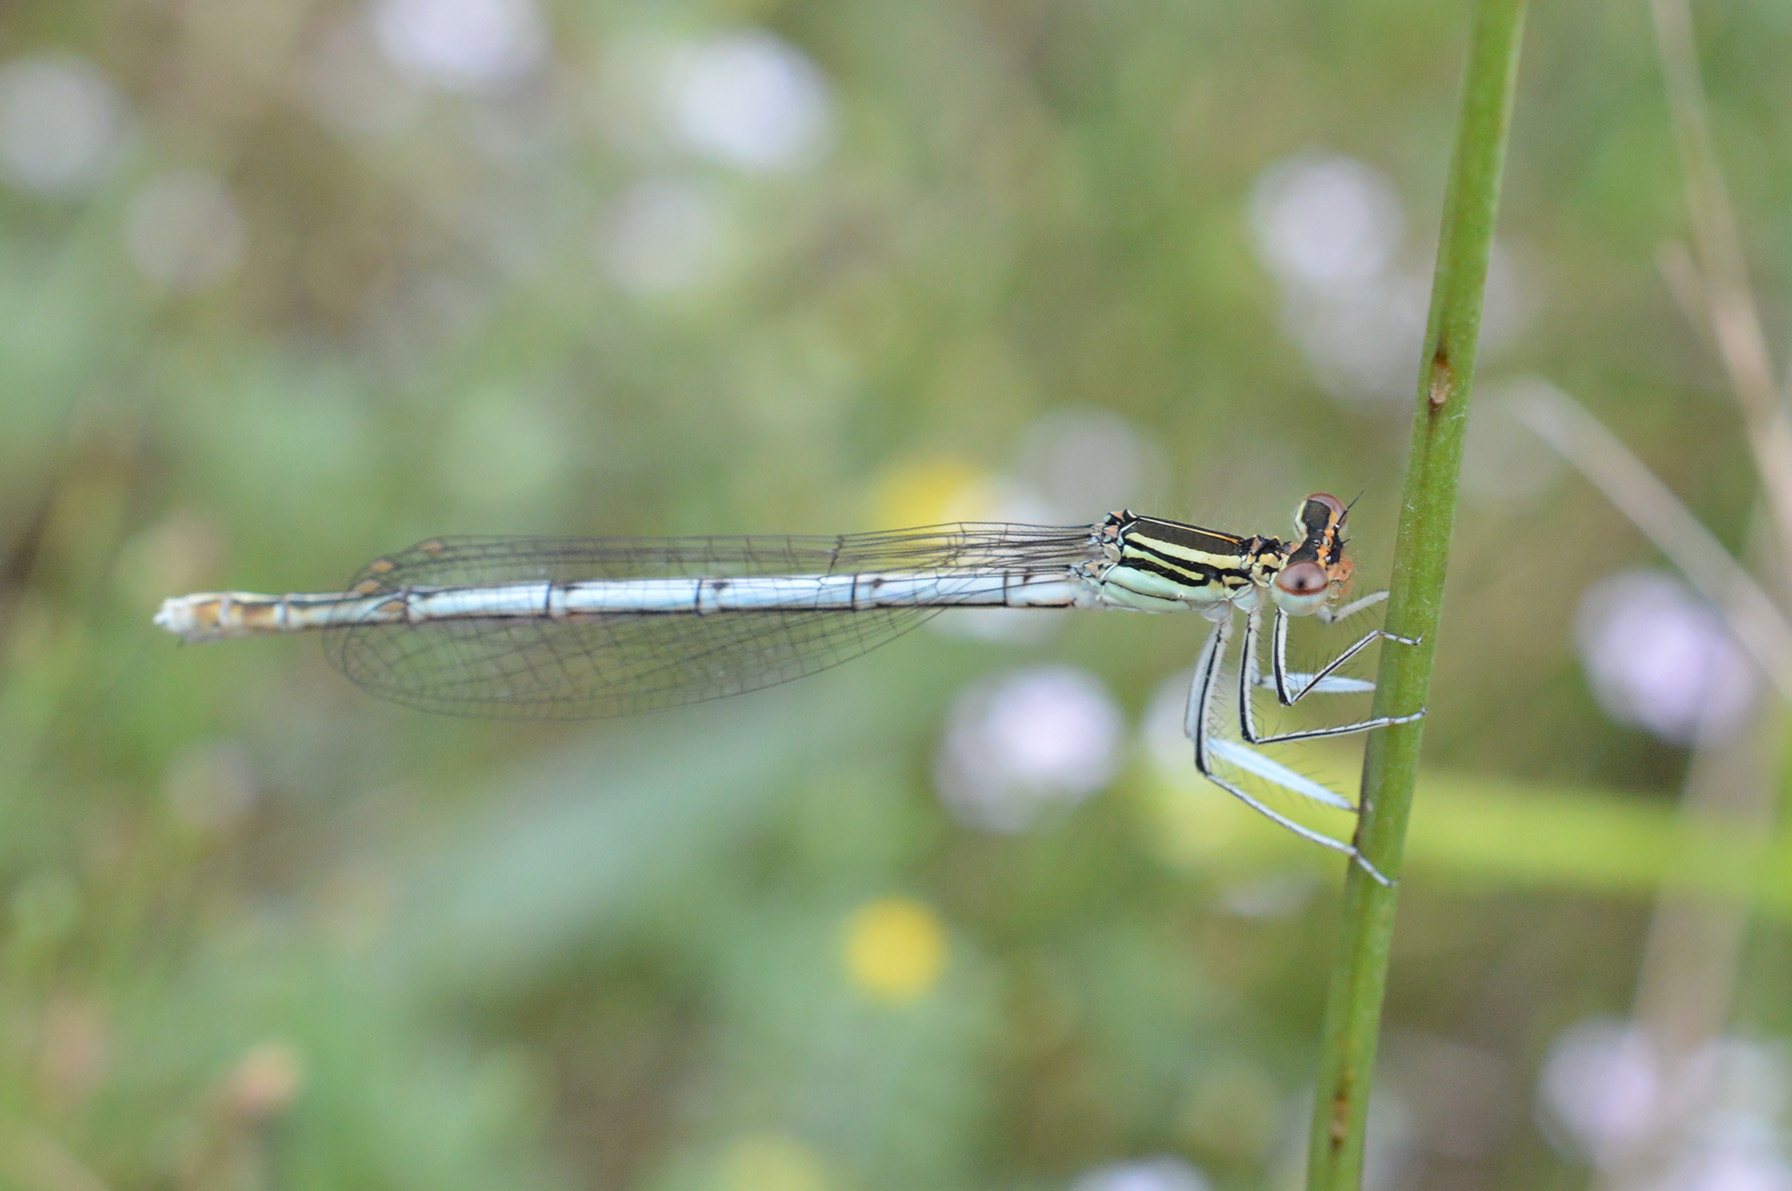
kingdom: Animalia
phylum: Arthropoda
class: Insecta
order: Odonata
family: Platycnemididae
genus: Platycnemis
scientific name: Platycnemis pennipes
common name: White-legged damselfly
